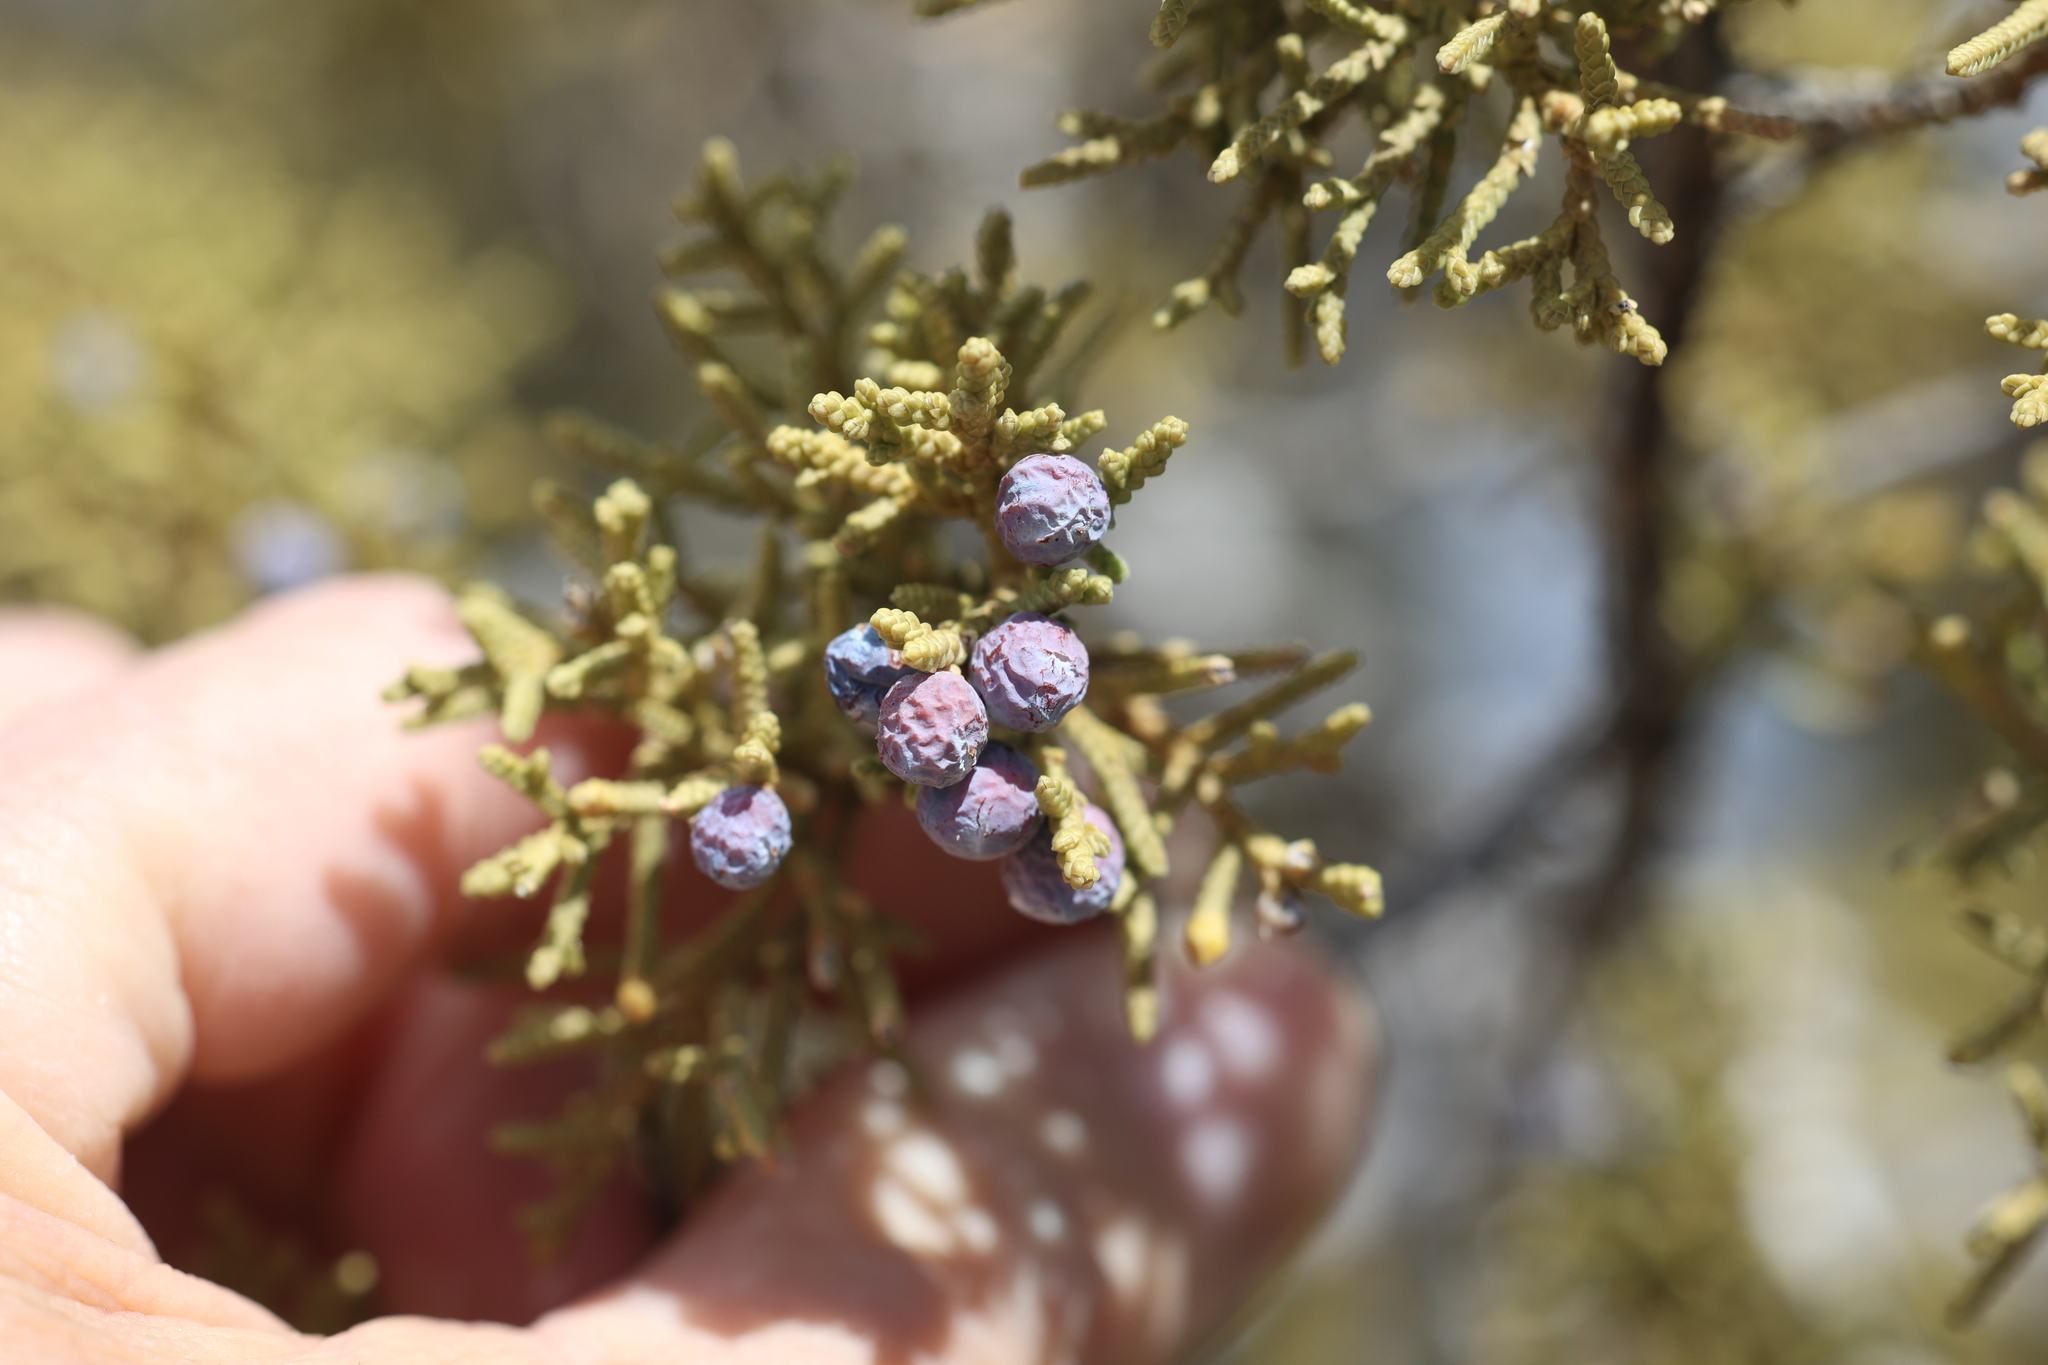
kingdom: Plantae
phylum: Tracheophyta
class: Pinopsida
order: Pinales
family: Cupressaceae
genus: Juniperus
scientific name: Juniperus monosperma
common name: One-seed juniper
